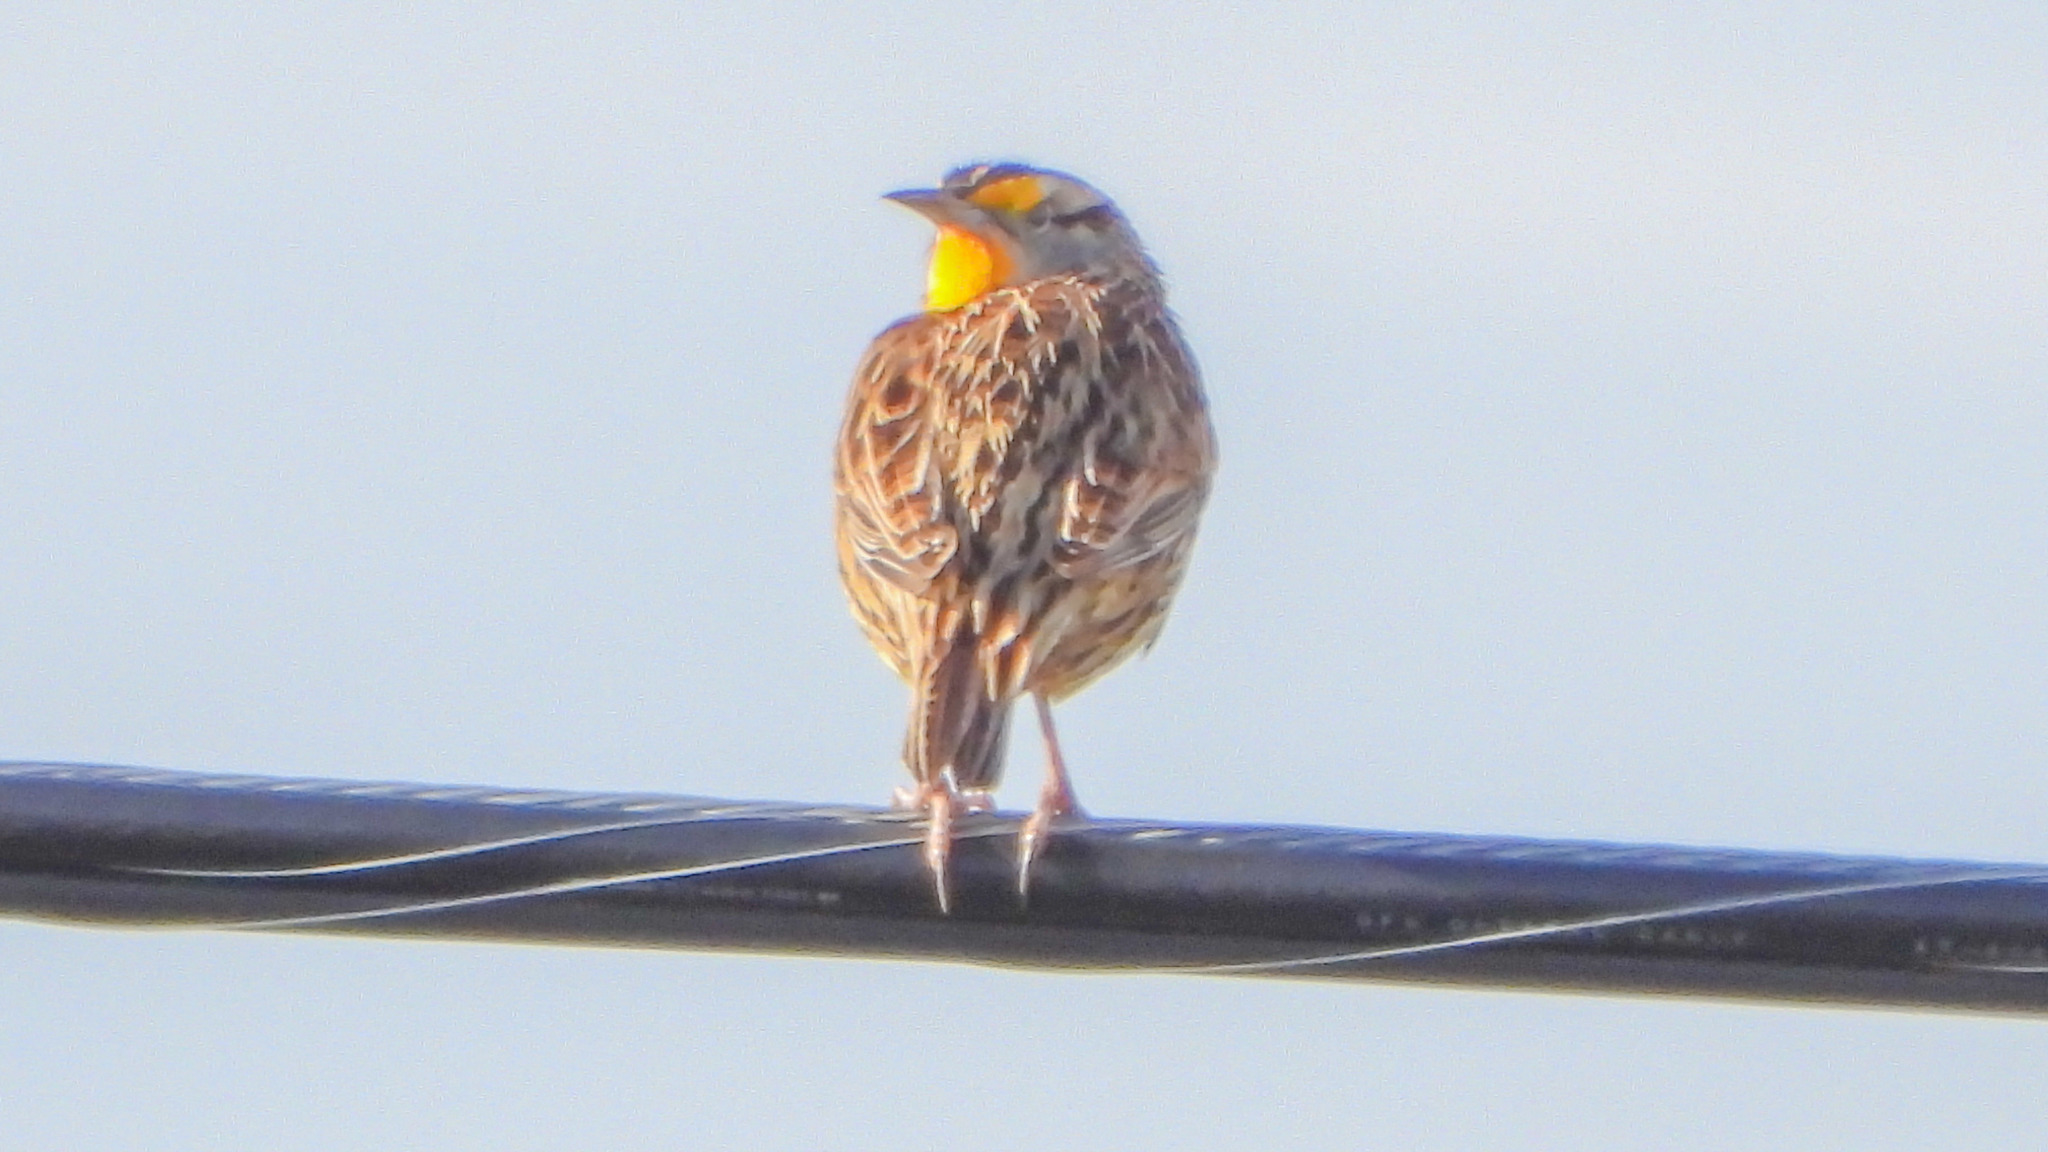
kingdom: Animalia
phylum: Chordata
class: Aves
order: Passeriformes
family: Icteridae
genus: Sturnella
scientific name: Sturnella magna
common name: Eastern meadowlark
